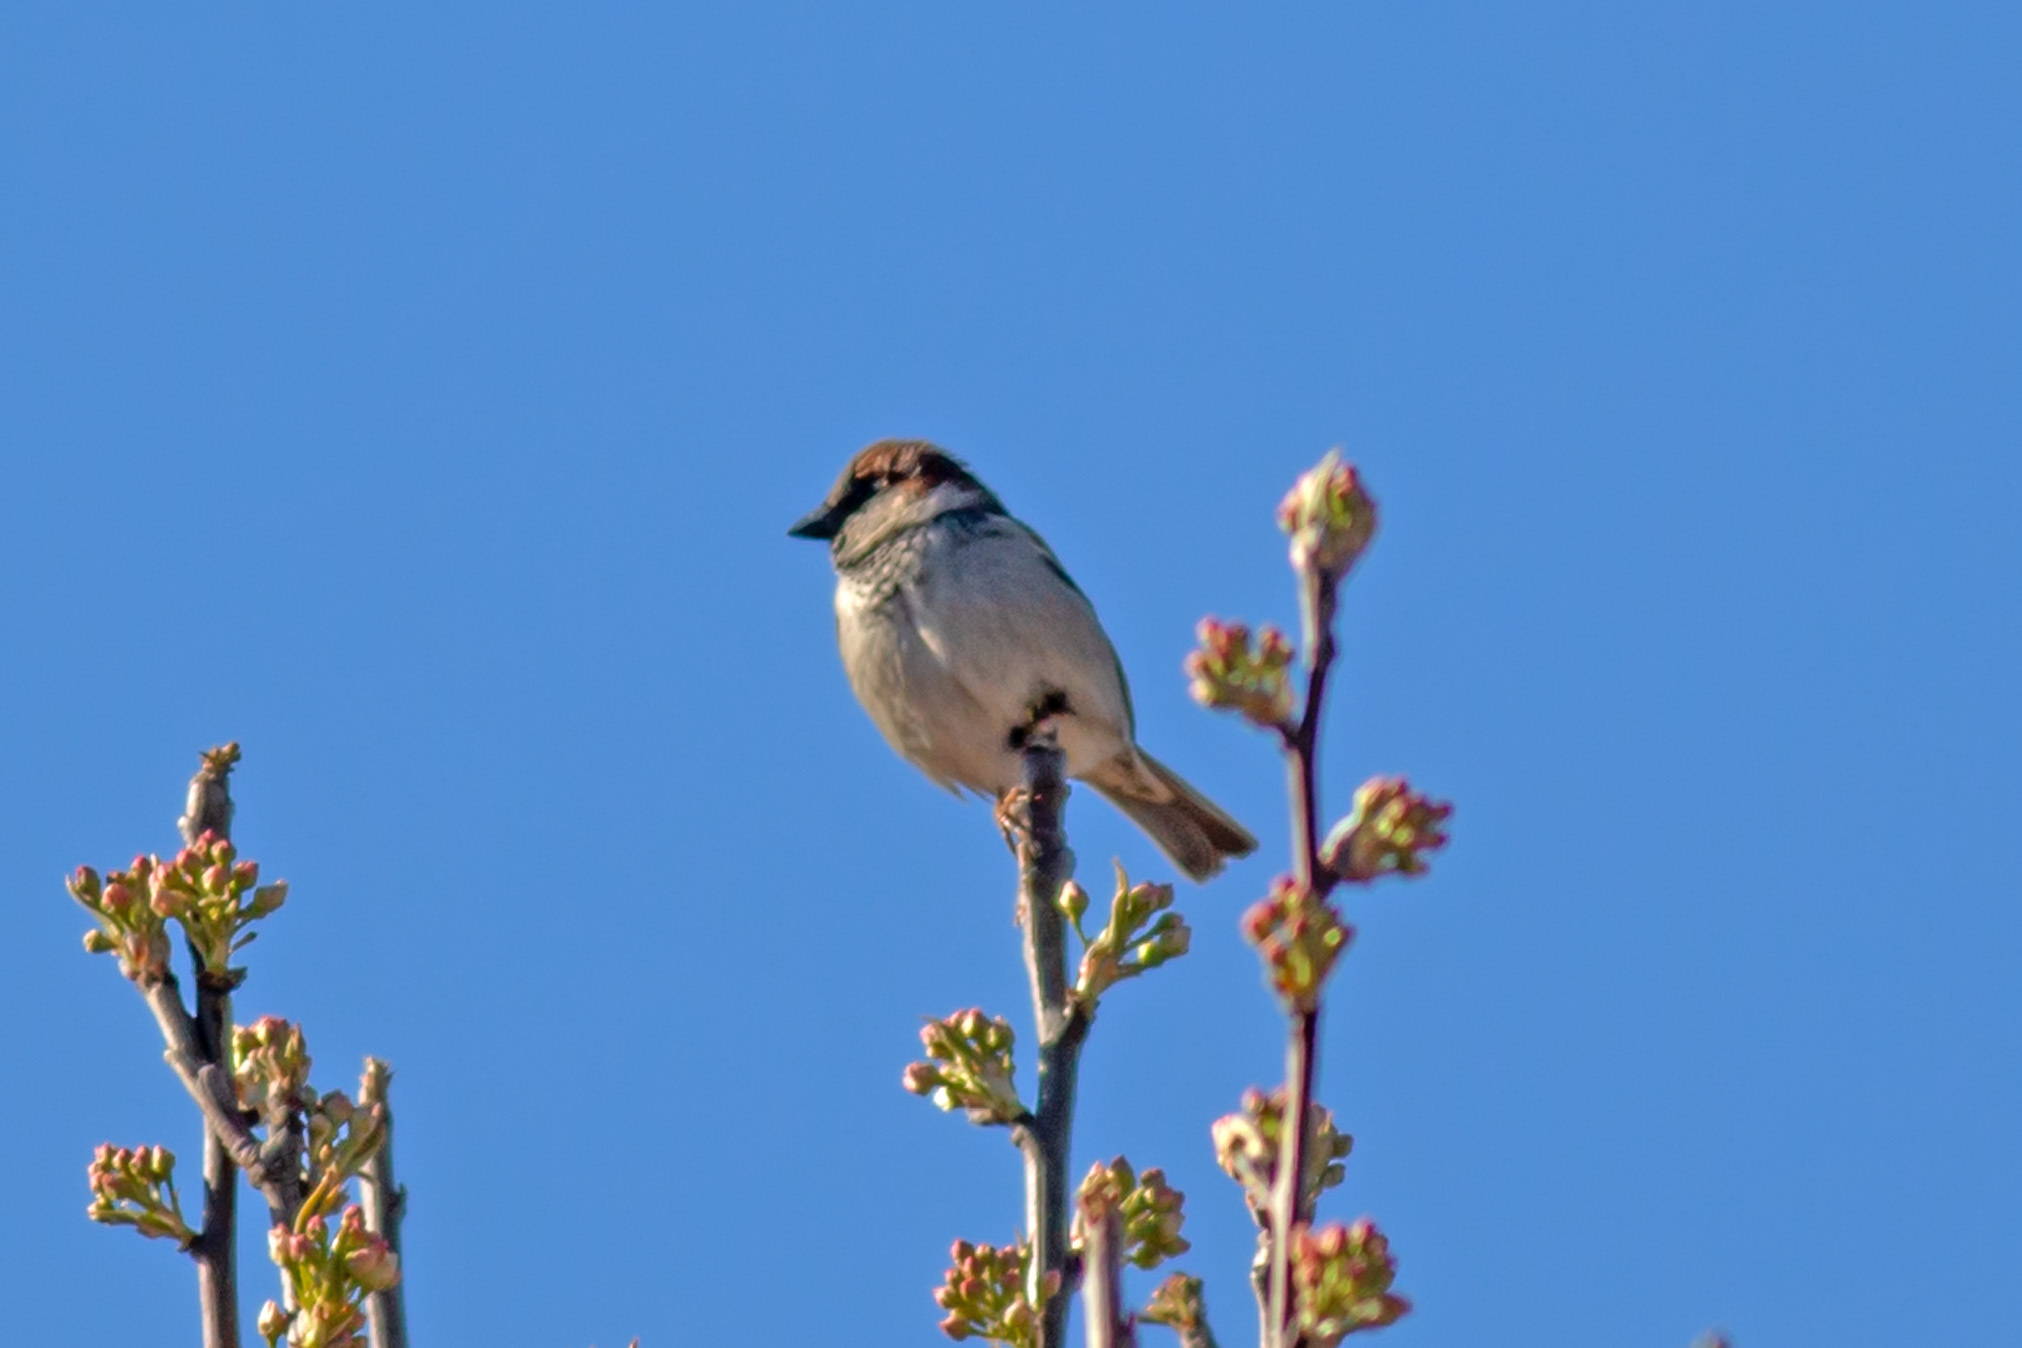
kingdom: Animalia
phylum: Chordata
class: Aves
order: Passeriformes
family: Passeridae
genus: Passer
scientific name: Passer domesticus
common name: House sparrow
